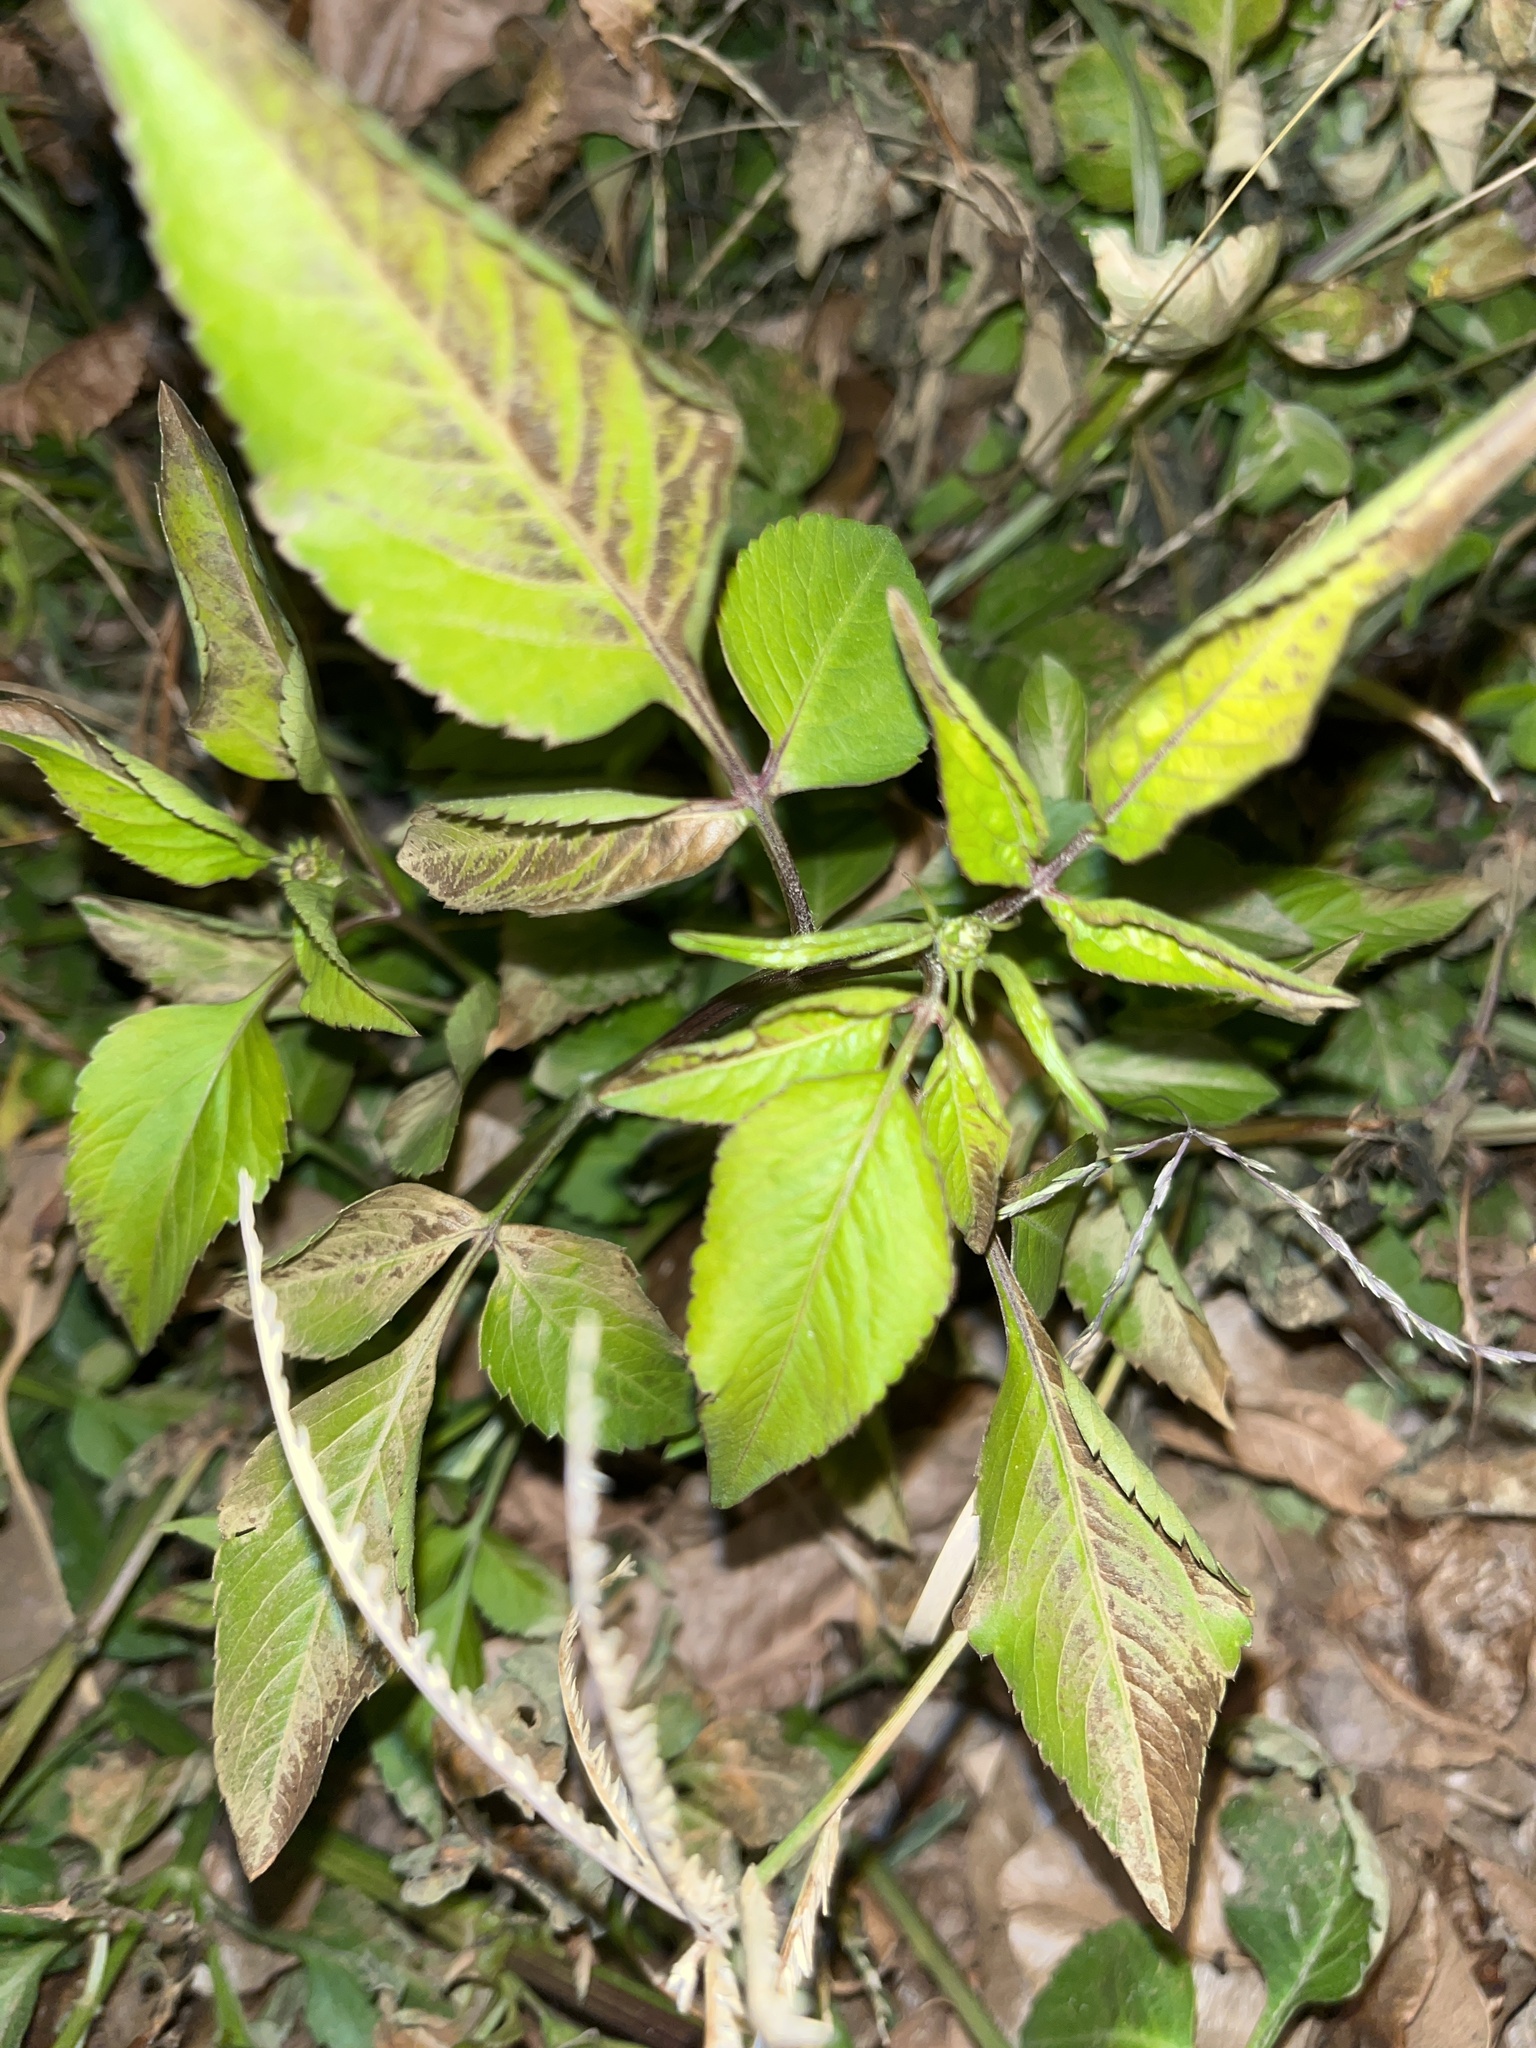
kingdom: Plantae
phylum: Tracheophyta
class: Magnoliopsida
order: Asterales
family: Asteraceae
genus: Bidens
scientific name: Bidens alba
